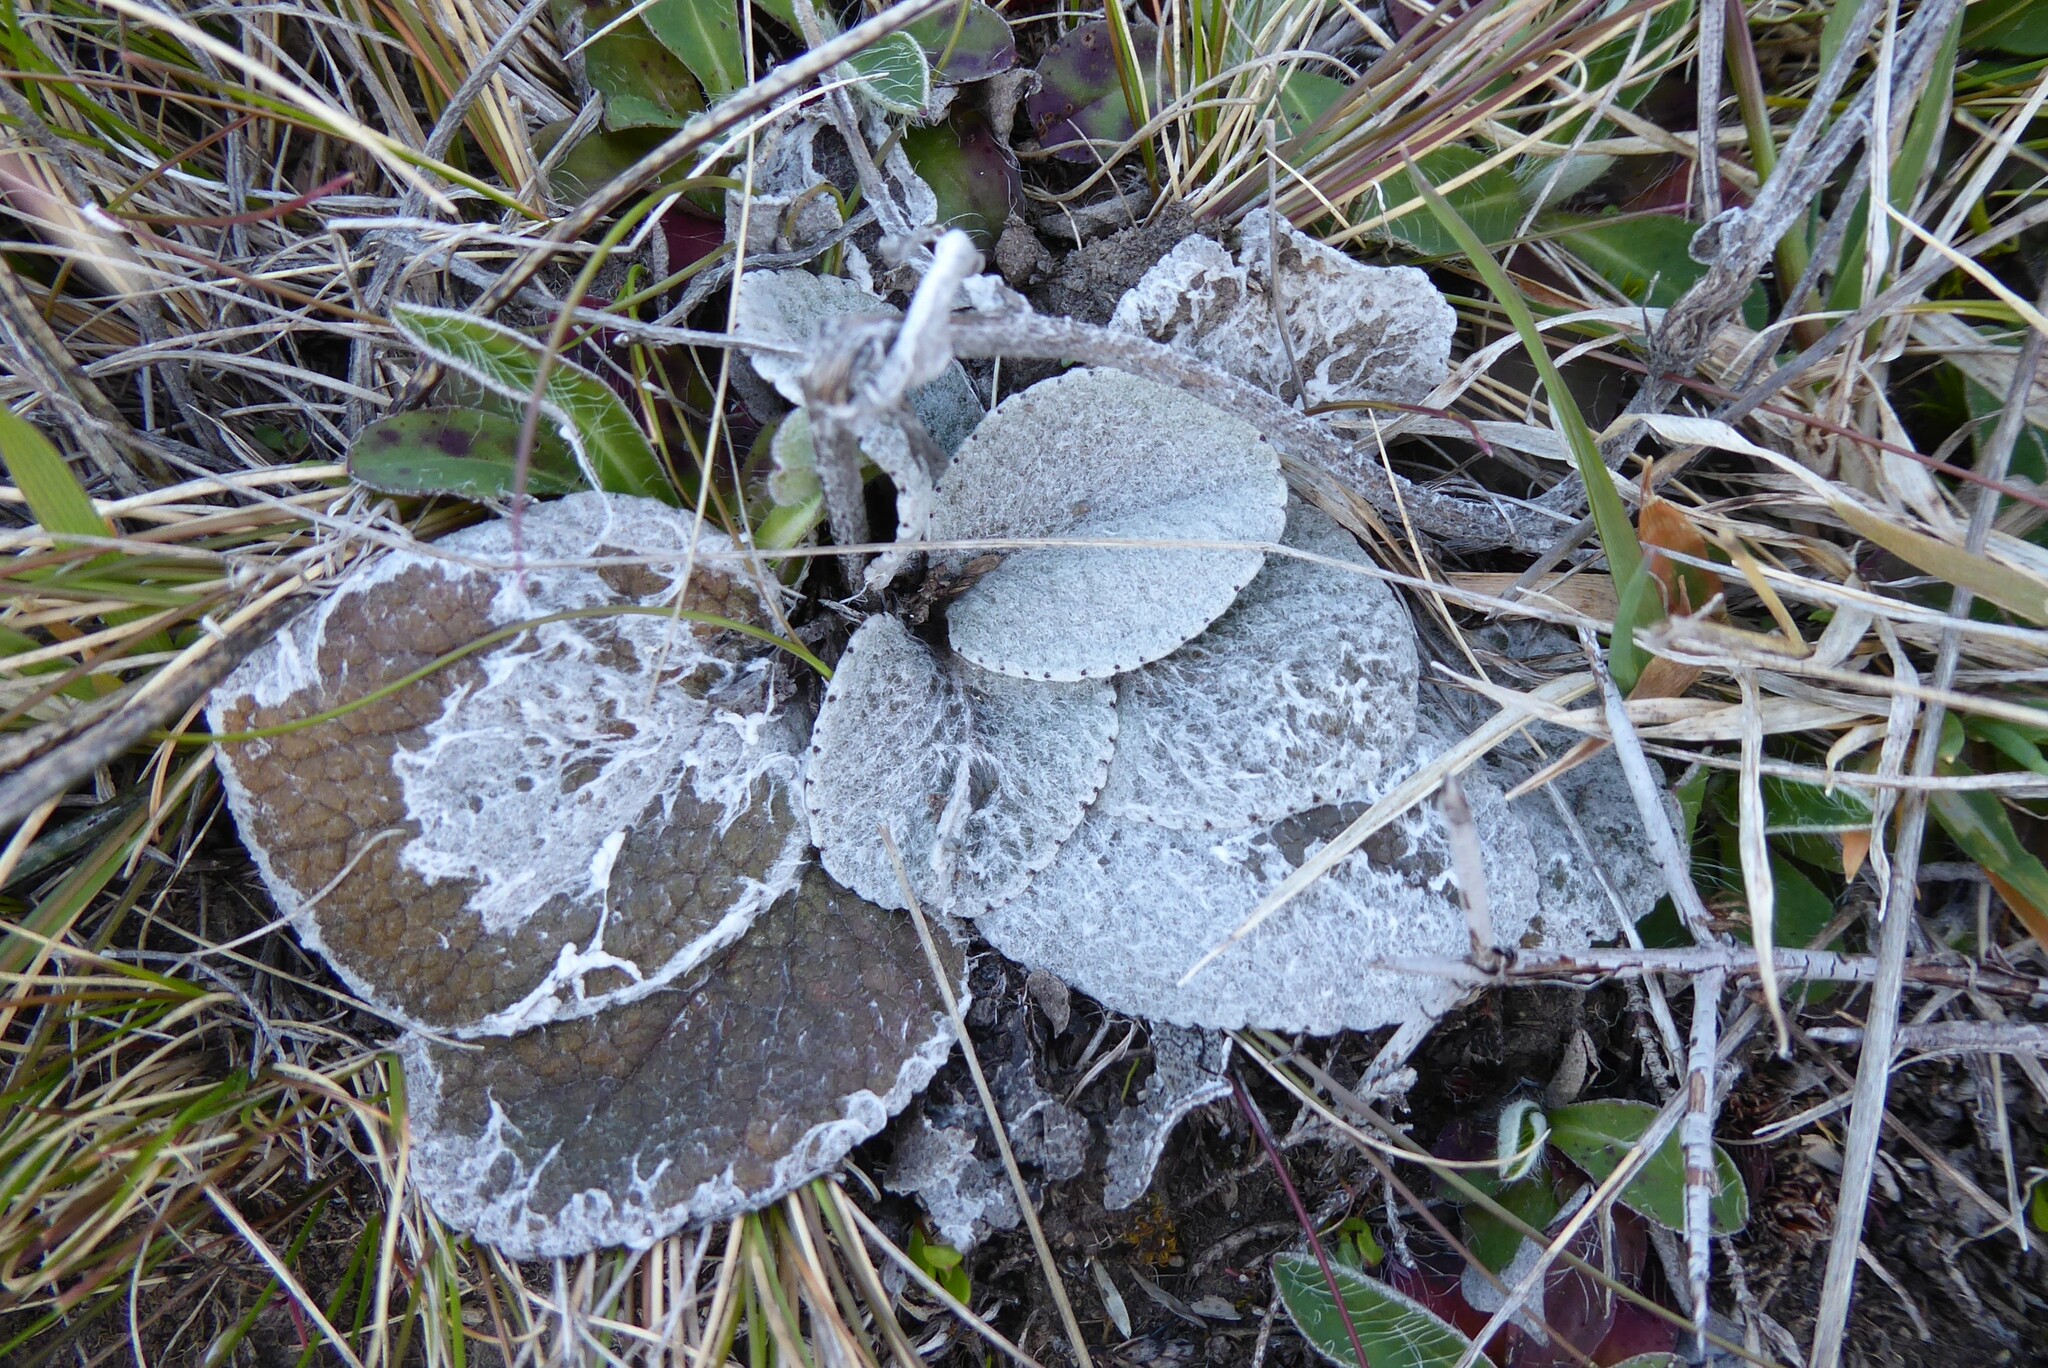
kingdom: Plantae
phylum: Tracheophyta
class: Magnoliopsida
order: Asterales
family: Asteraceae
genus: Brachyglottis
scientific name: Brachyglottis haastii
